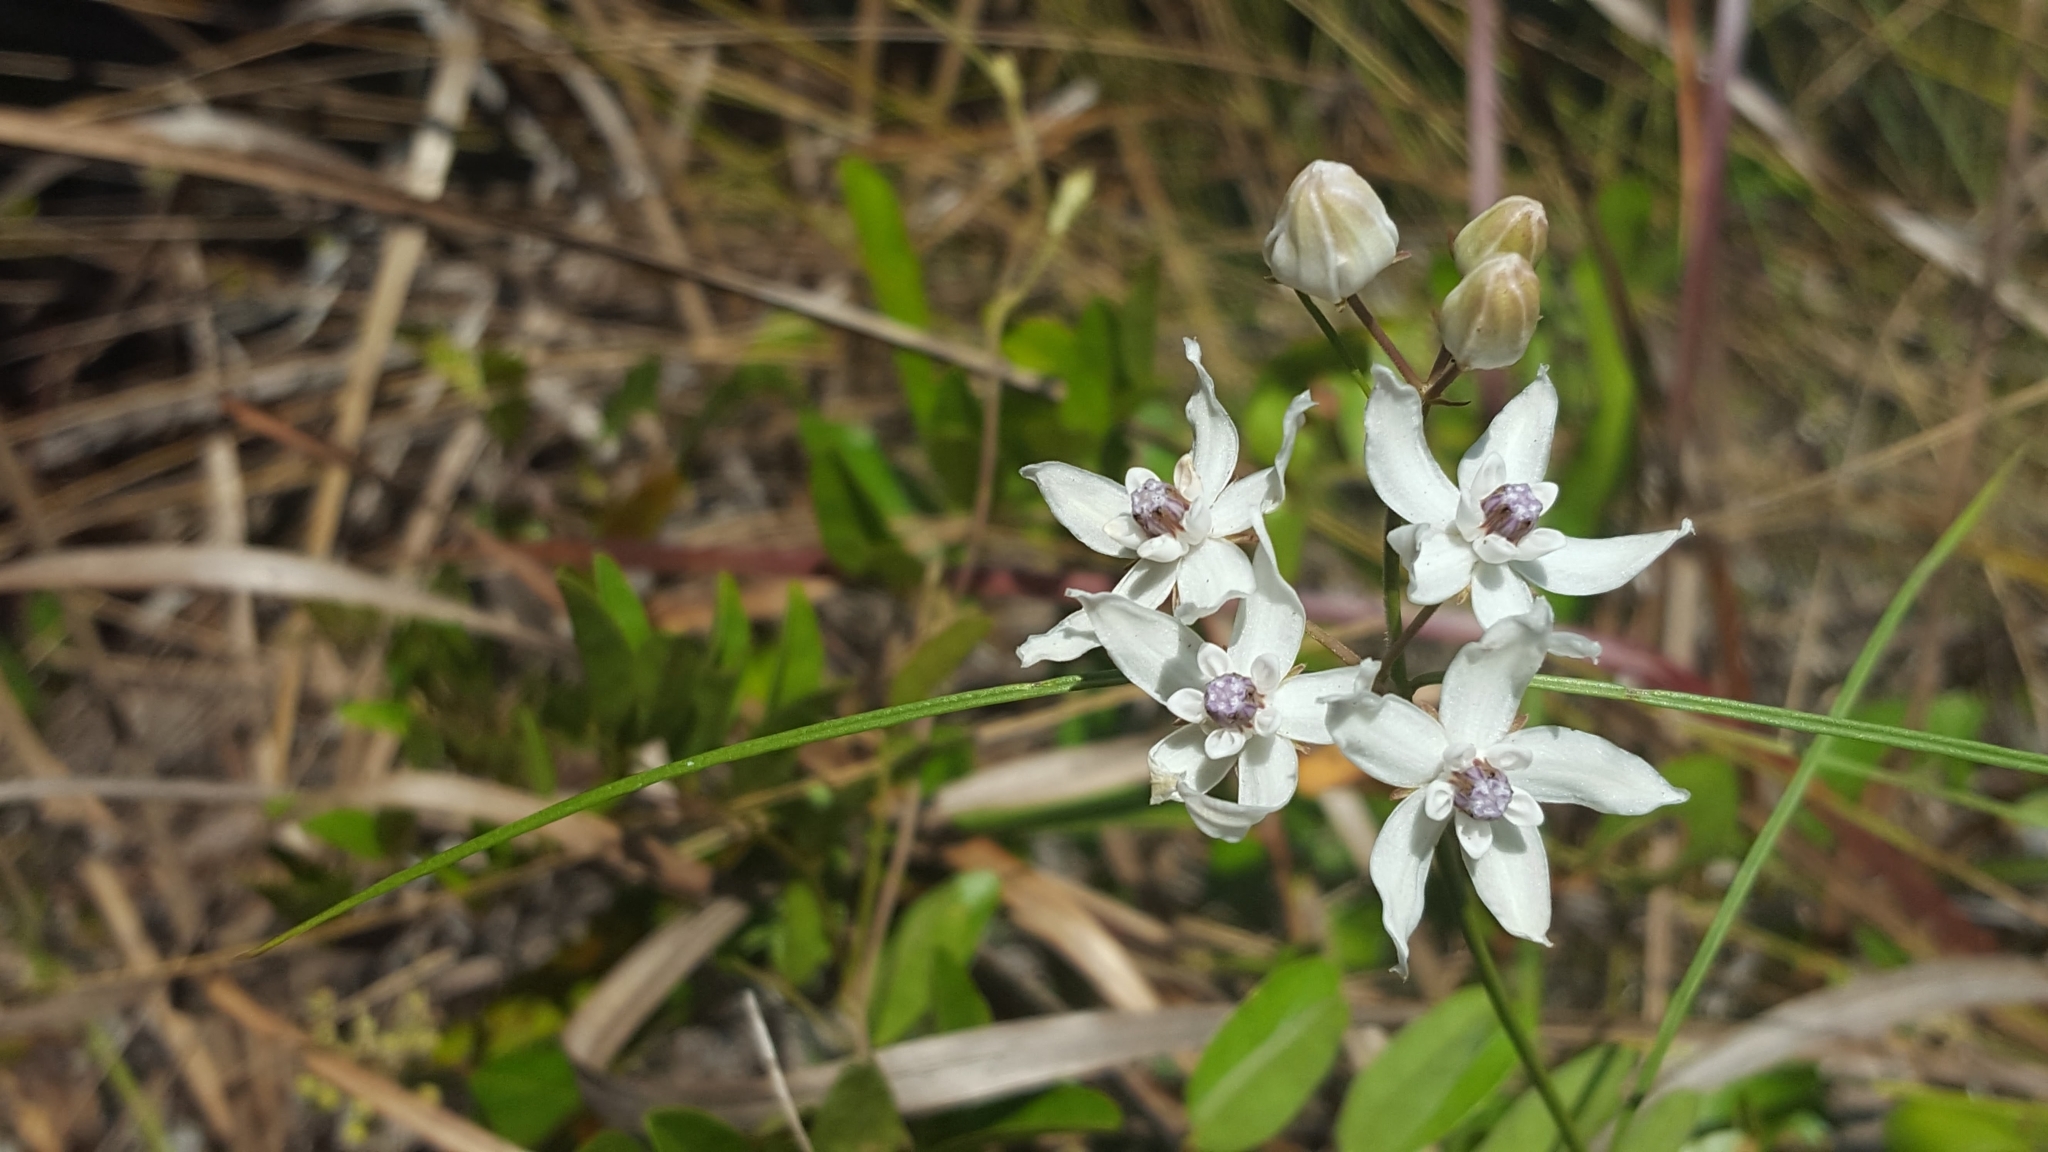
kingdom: Plantae
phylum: Tracheophyta
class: Magnoliopsida
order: Gentianales
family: Apocynaceae
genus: Asclepias
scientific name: Asclepias feayi
